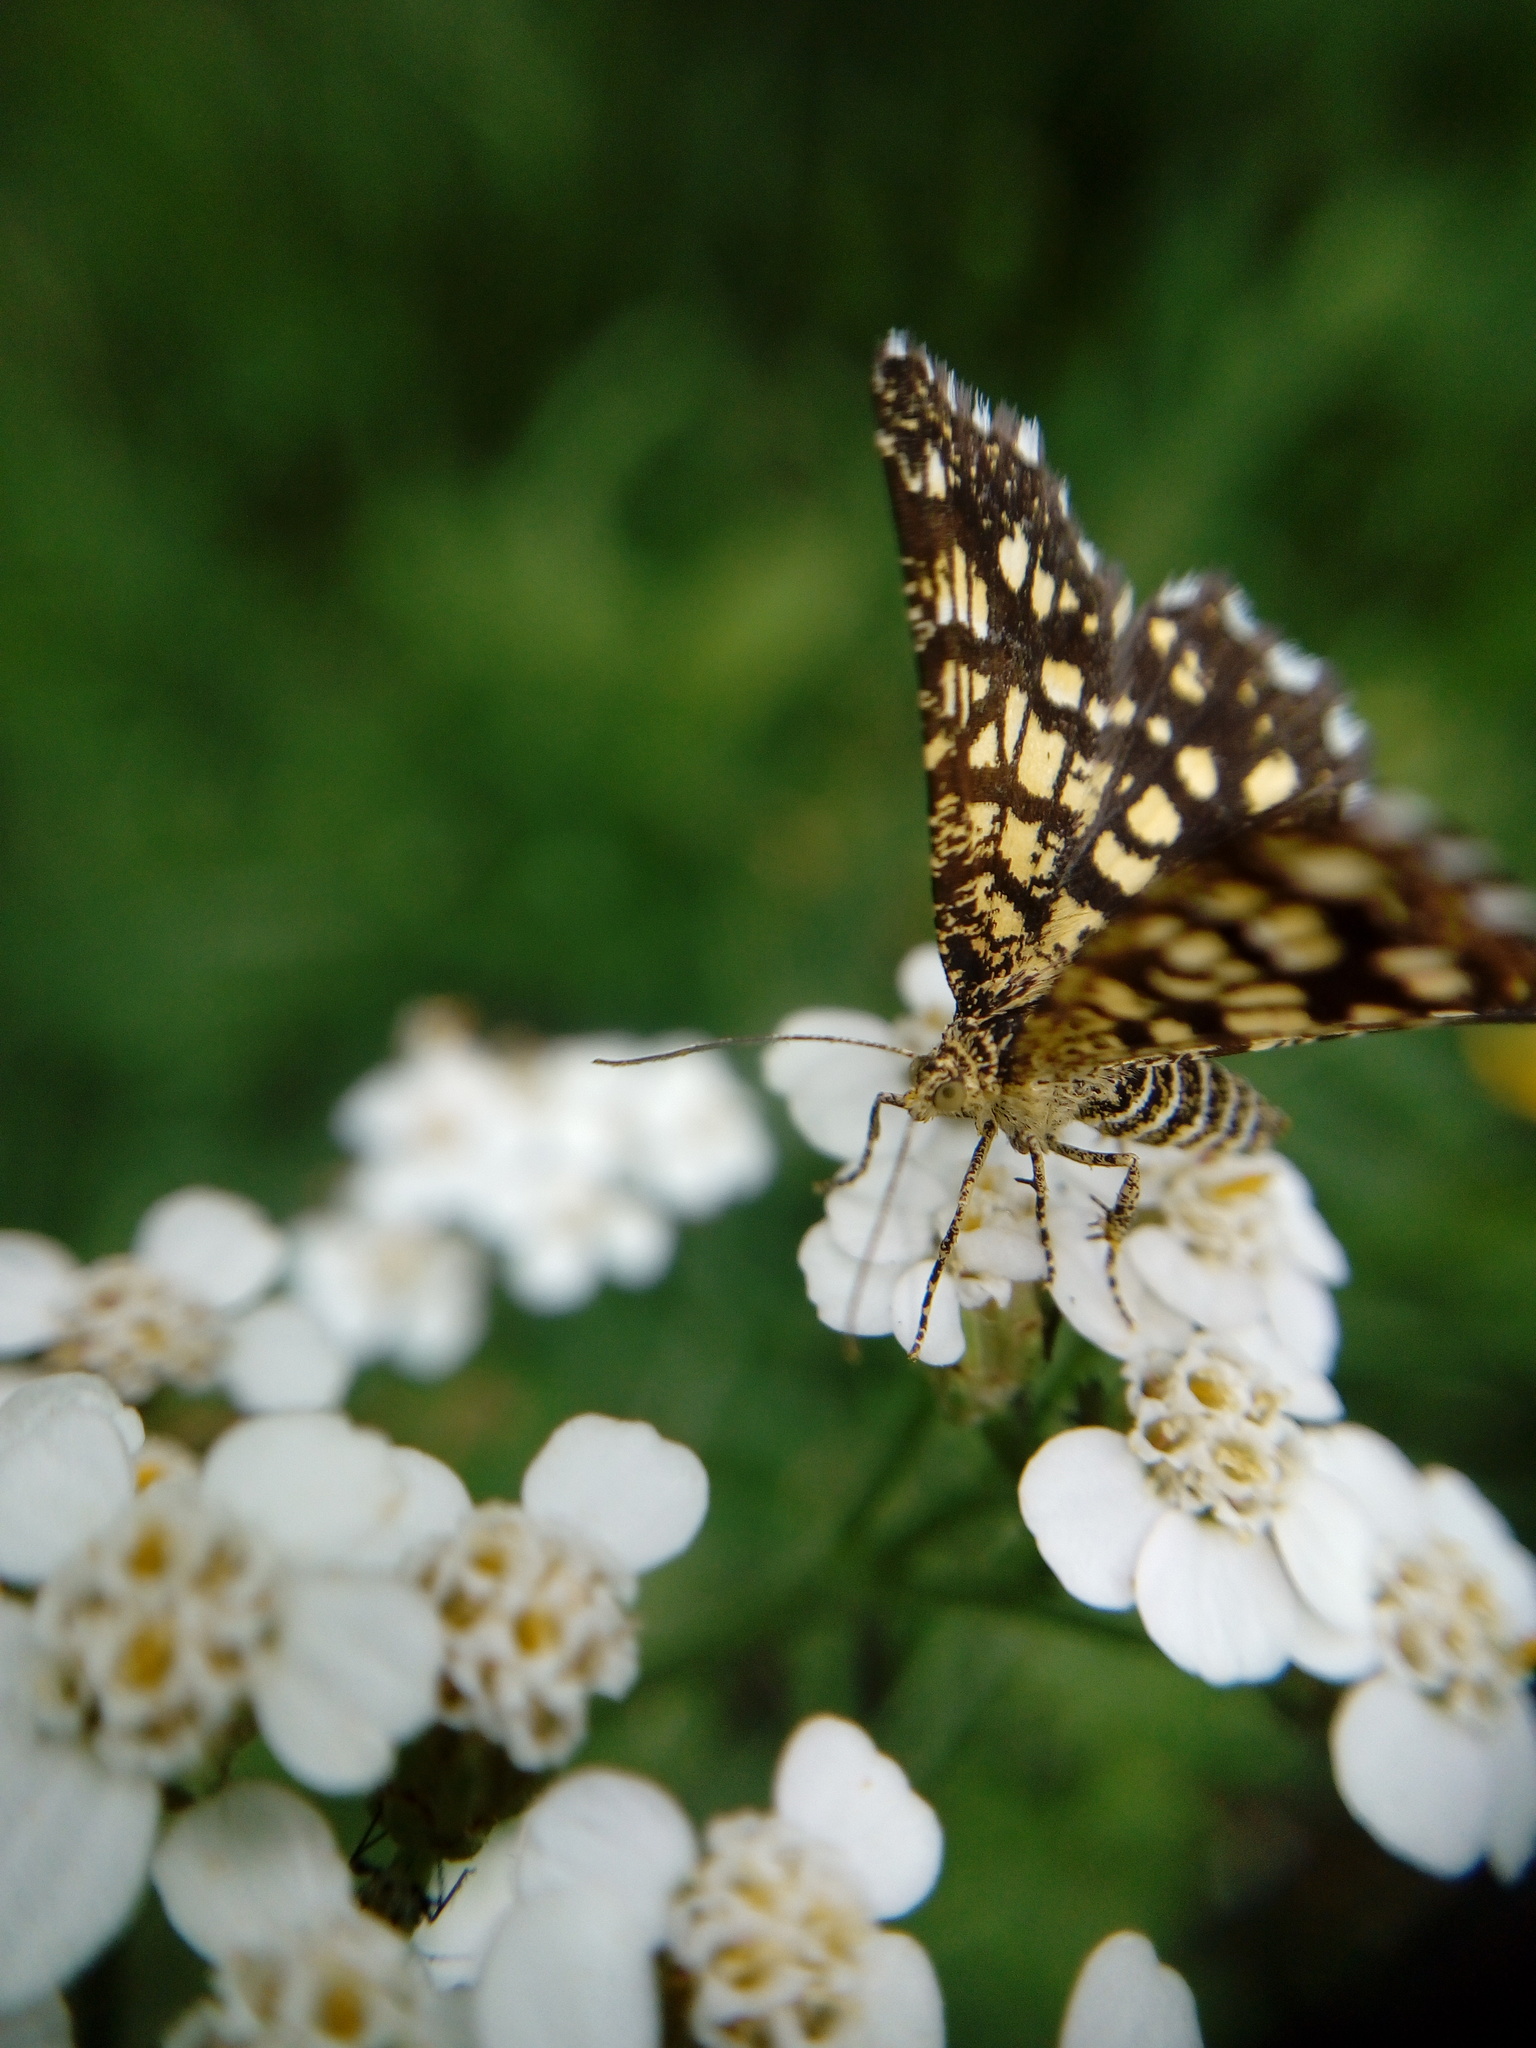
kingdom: Animalia
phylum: Arthropoda
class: Insecta
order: Lepidoptera
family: Geometridae
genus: Chiasmia
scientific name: Chiasmia clathrata
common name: Latticed heath
